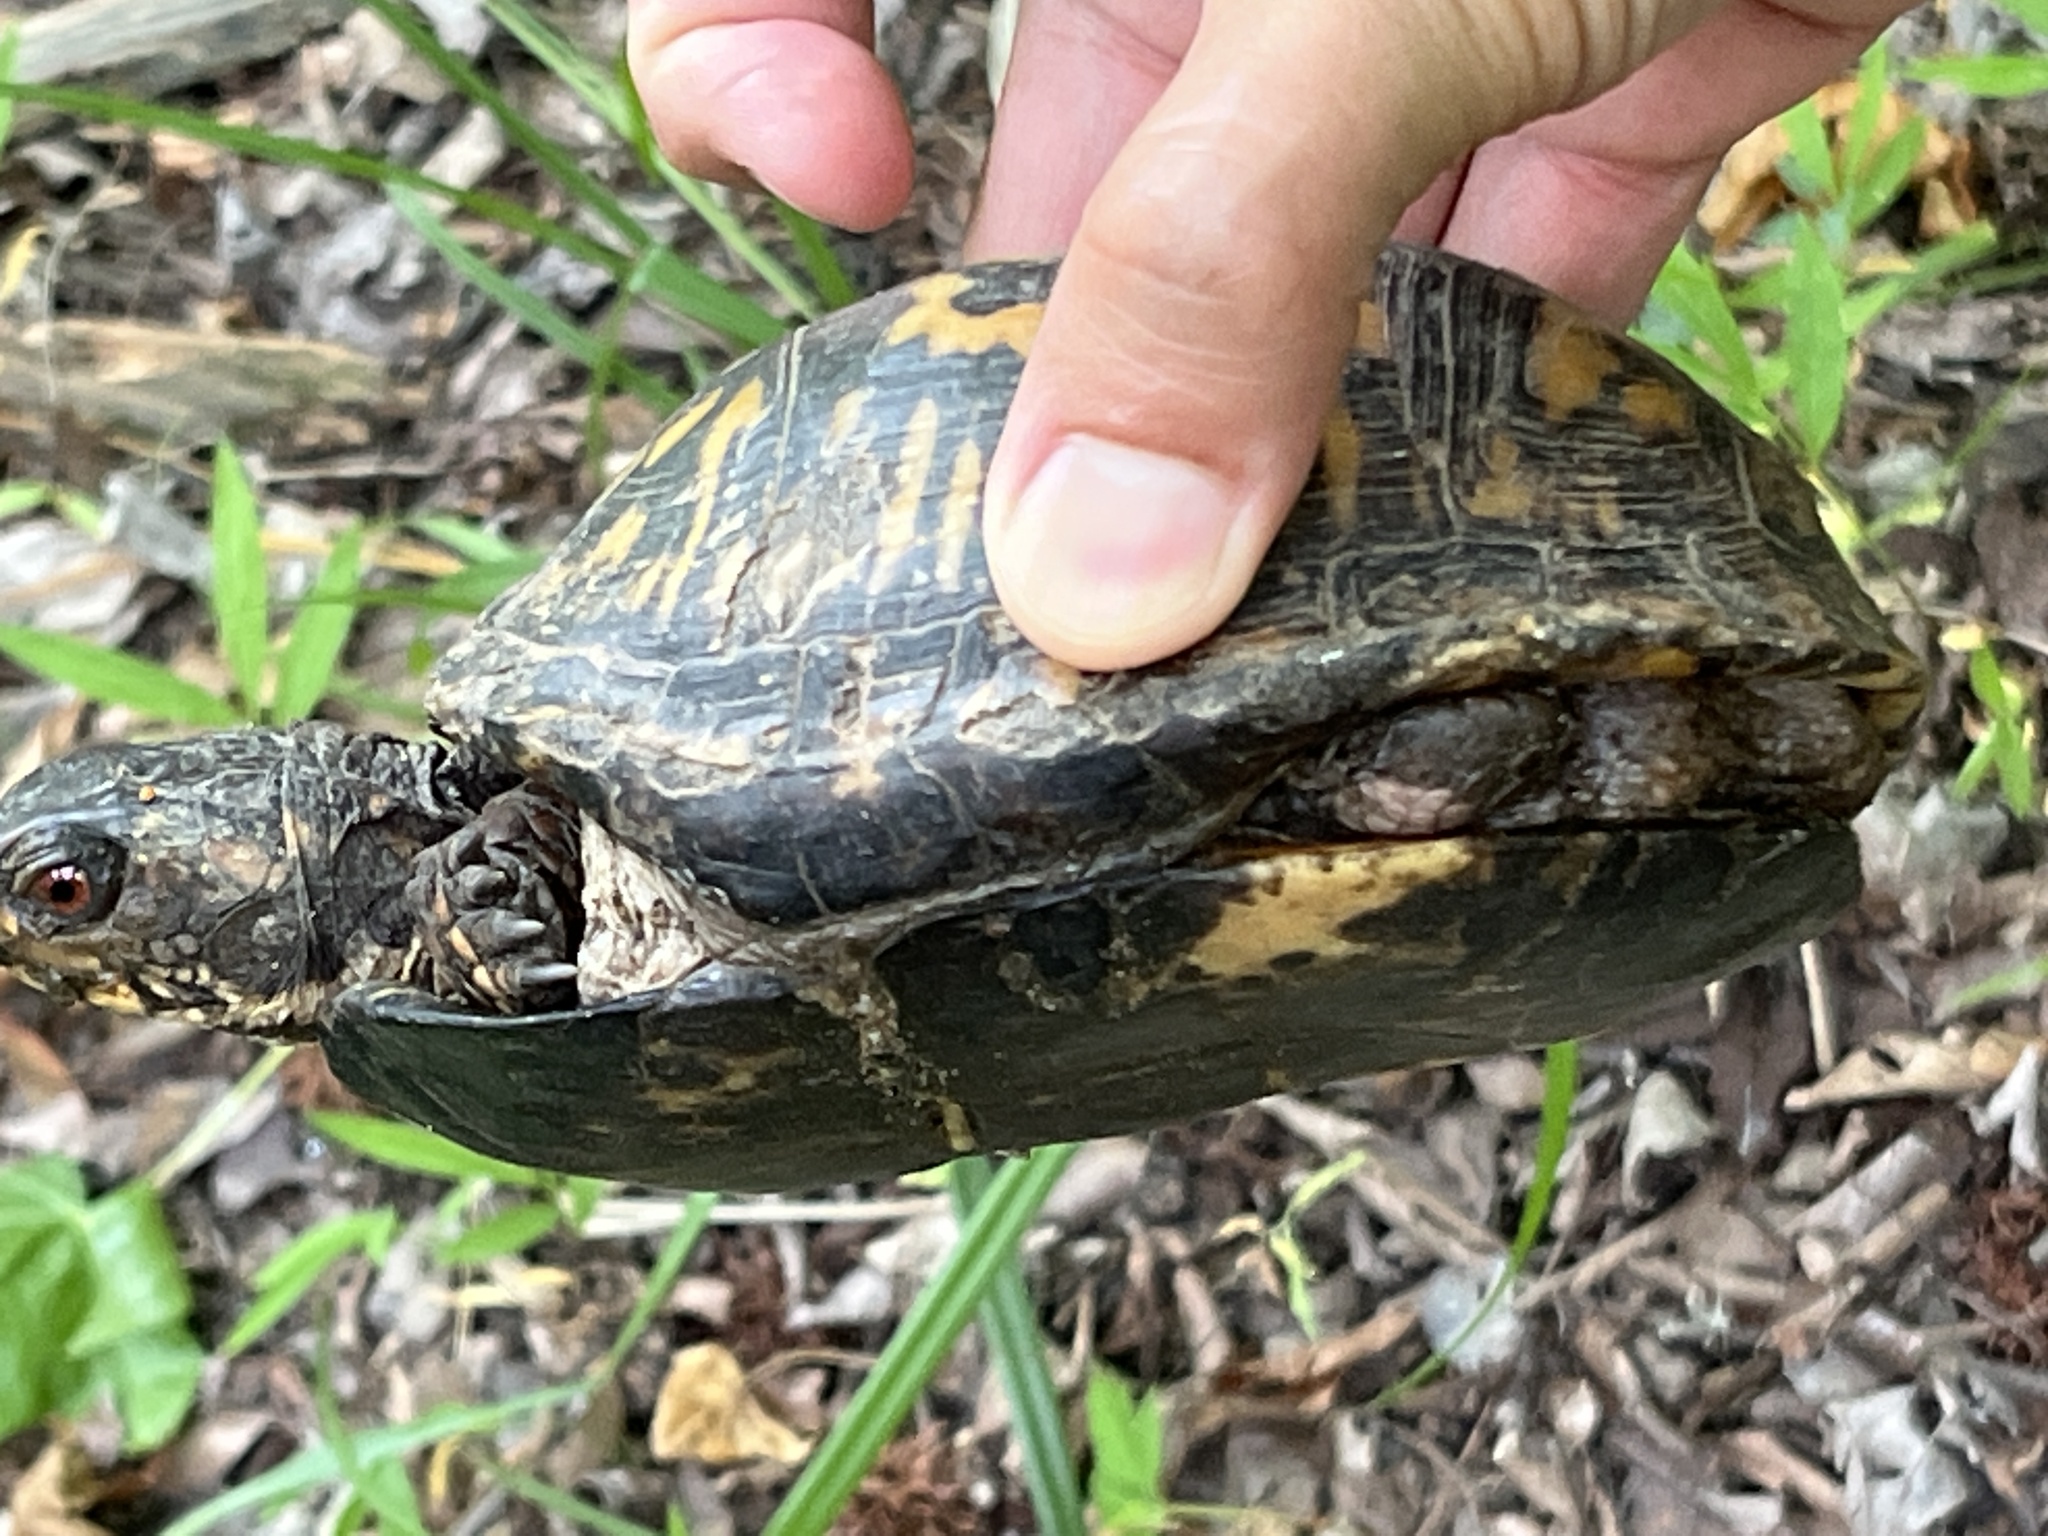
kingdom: Animalia
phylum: Chordata
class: Testudines
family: Emydidae
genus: Terrapene
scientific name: Terrapene carolina
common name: Common box turtle
